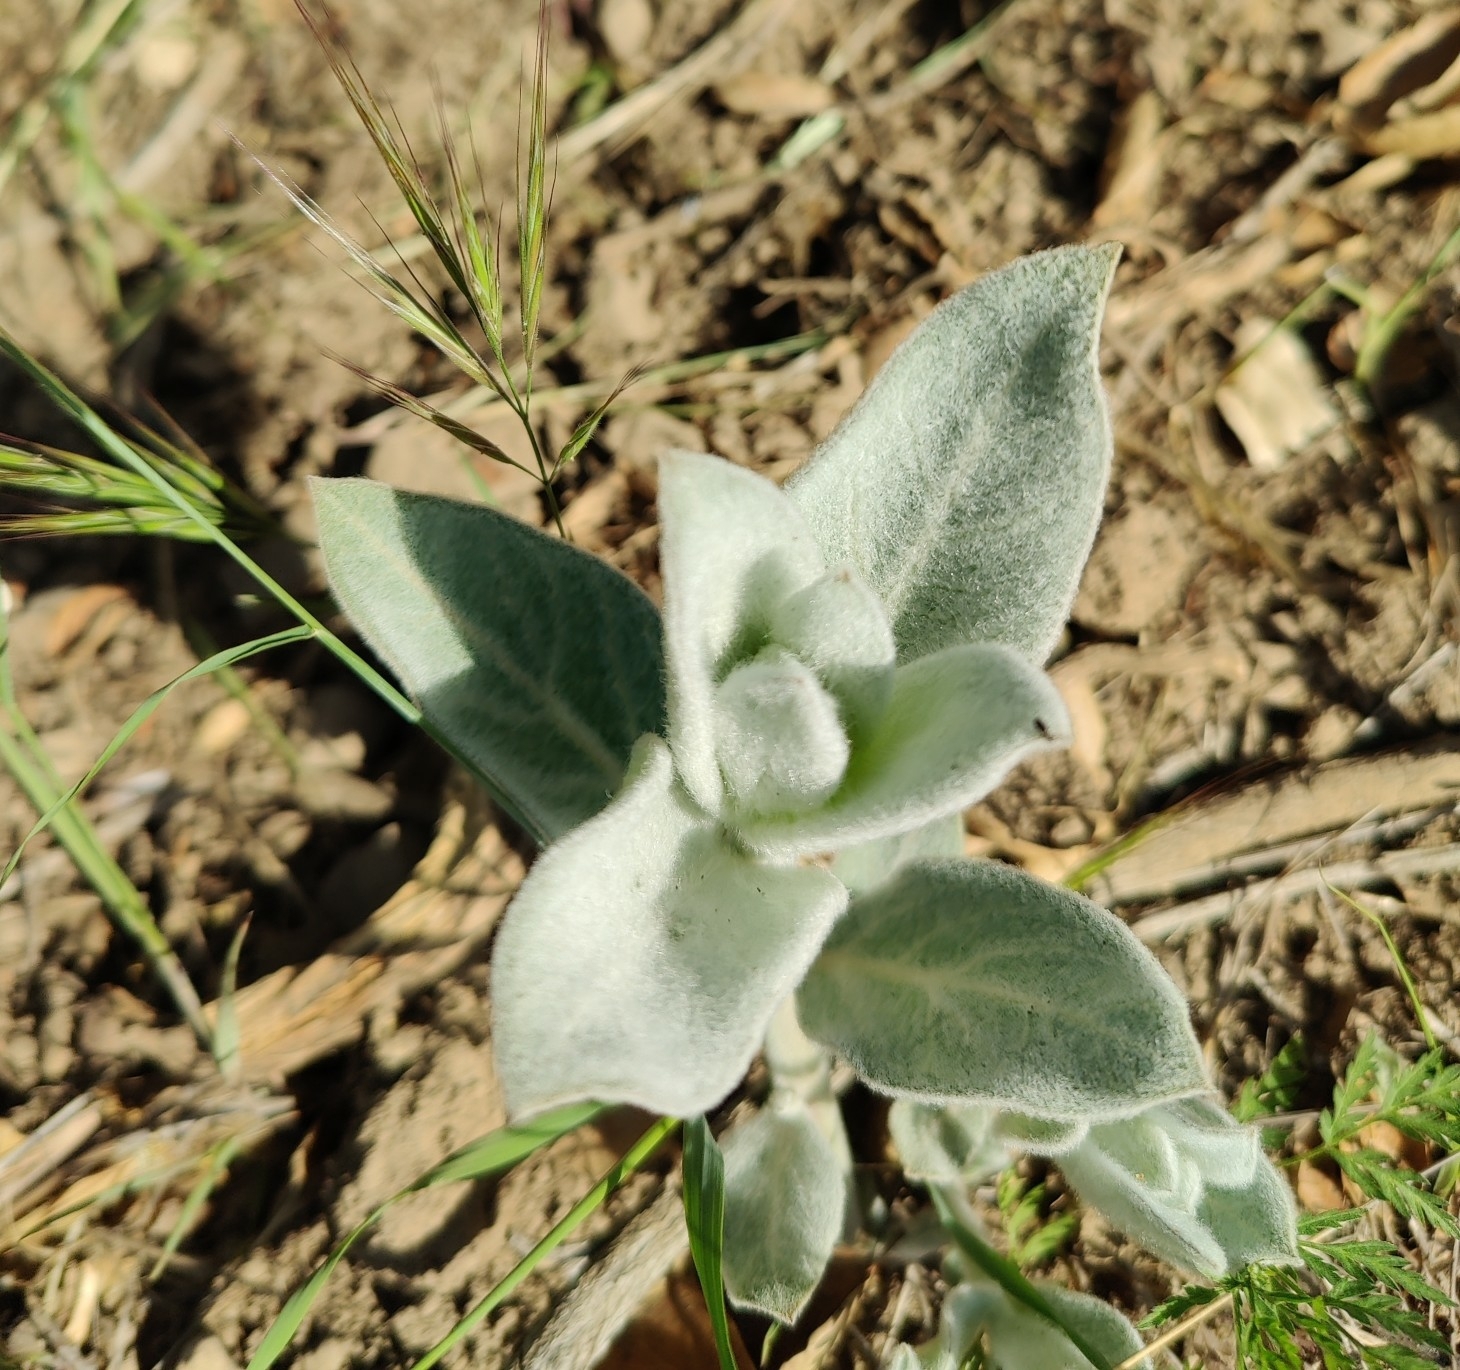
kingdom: Plantae
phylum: Tracheophyta
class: Magnoliopsida
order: Gentianales
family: Apocynaceae
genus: Asclepias
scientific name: Asclepias eriocarpa
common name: Indian milkweed
